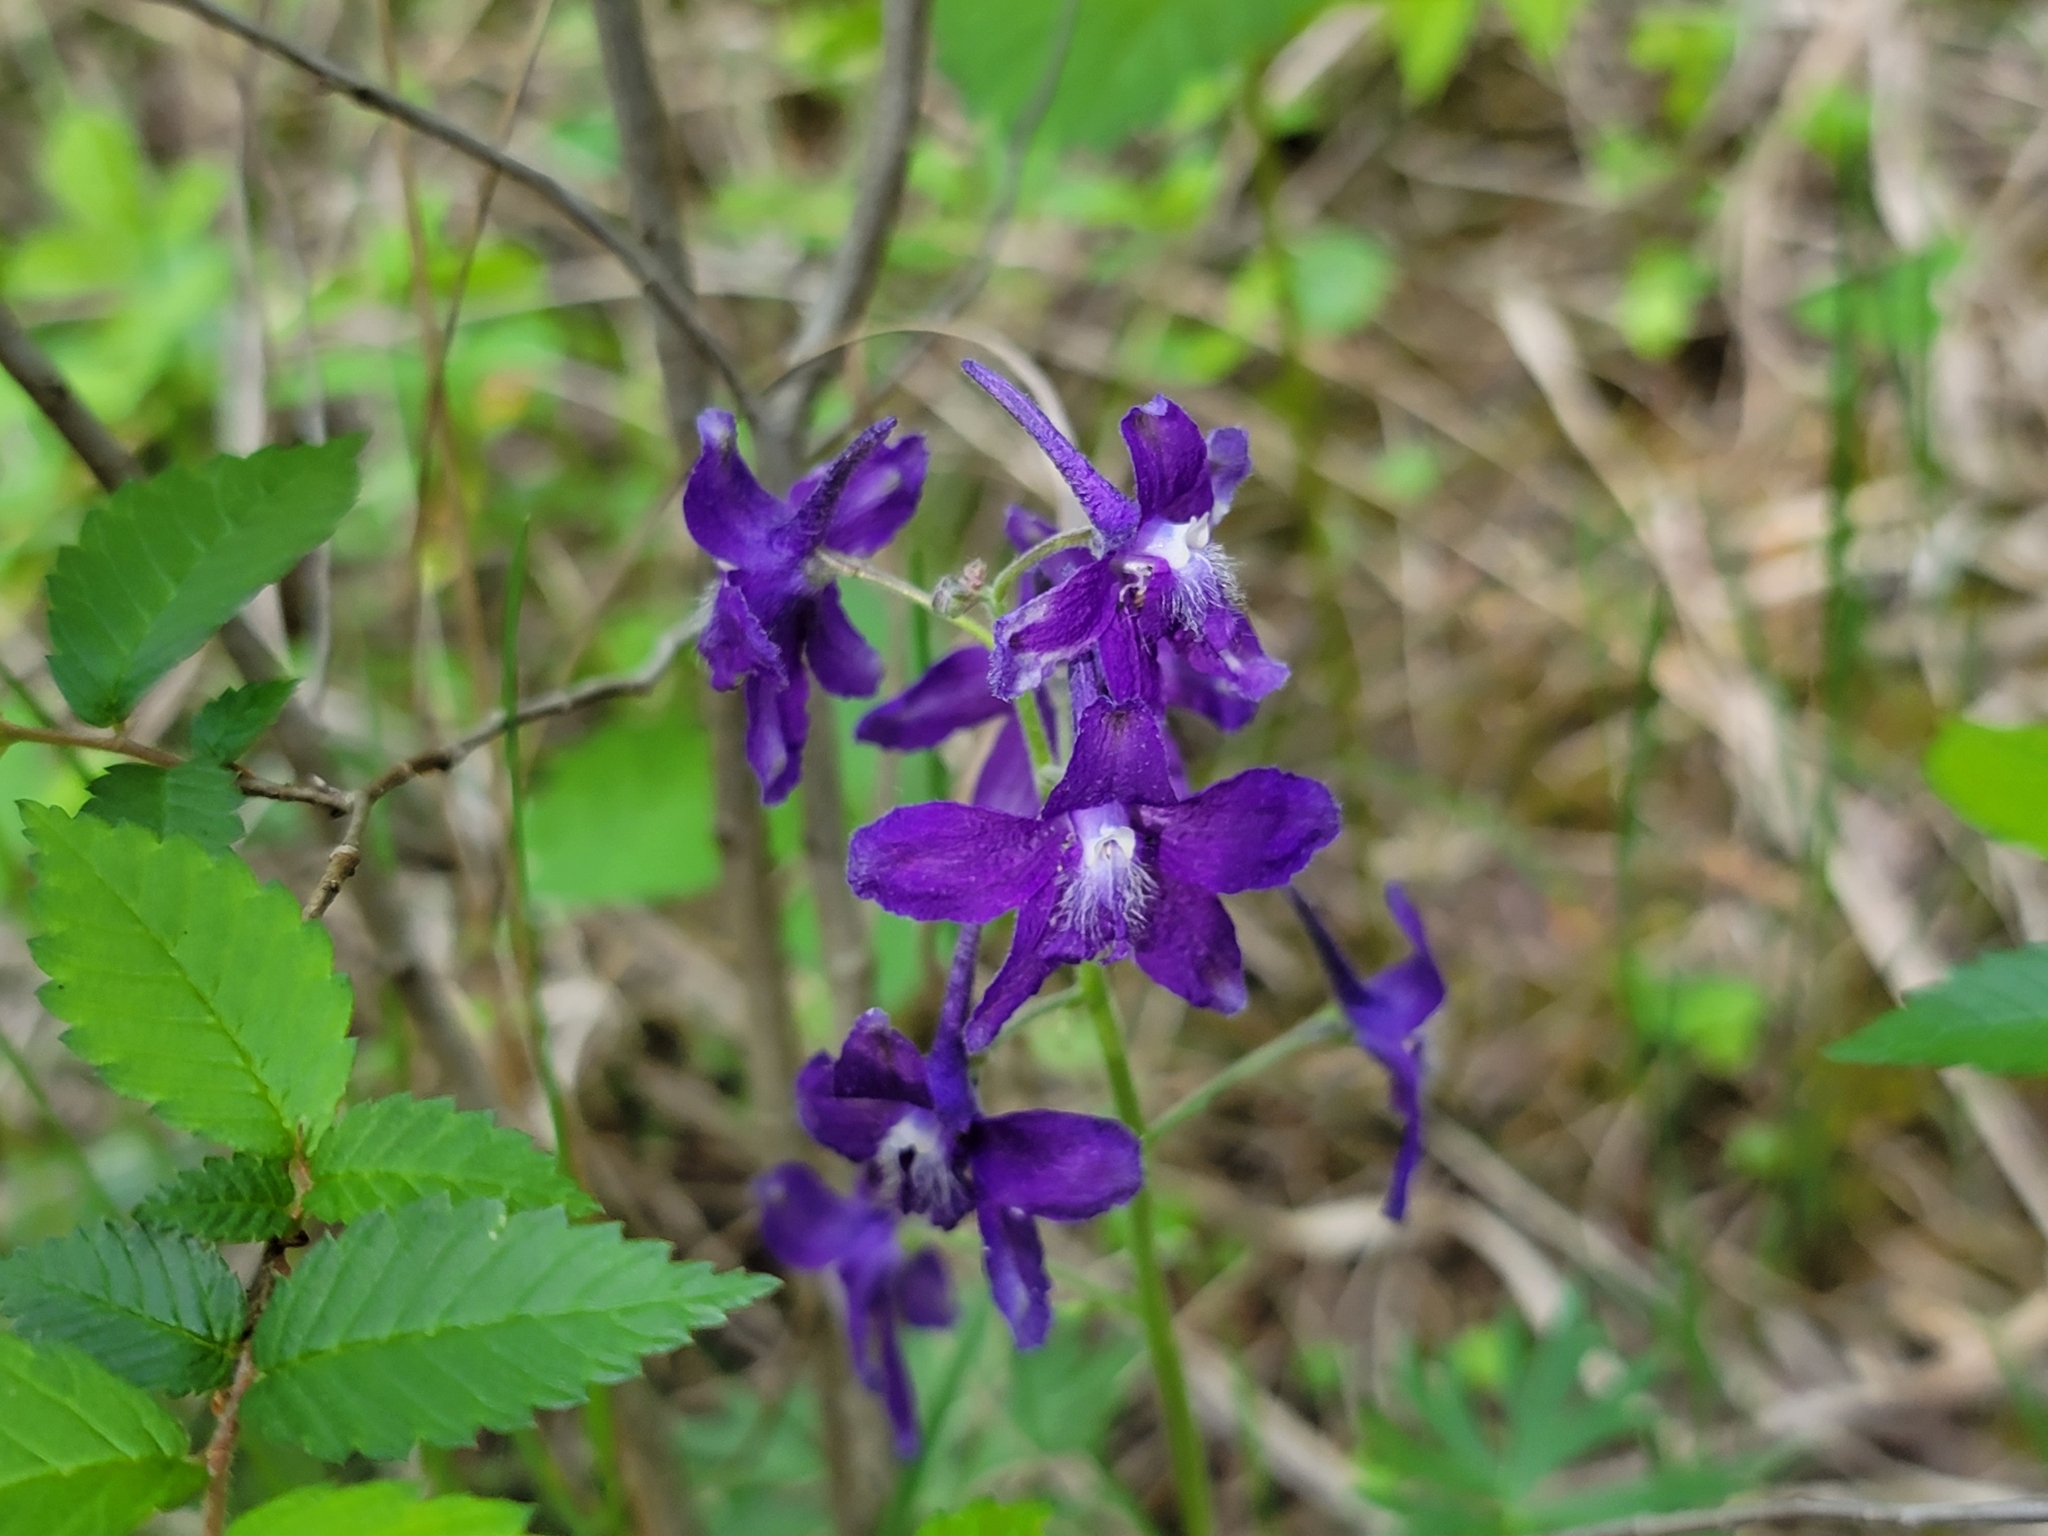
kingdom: Plantae
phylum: Tracheophyta
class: Magnoliopsida
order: Ranunculales
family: Ranunculaceae
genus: Delphinium
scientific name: Delphinium tricorne
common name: Dwarf larkspur
